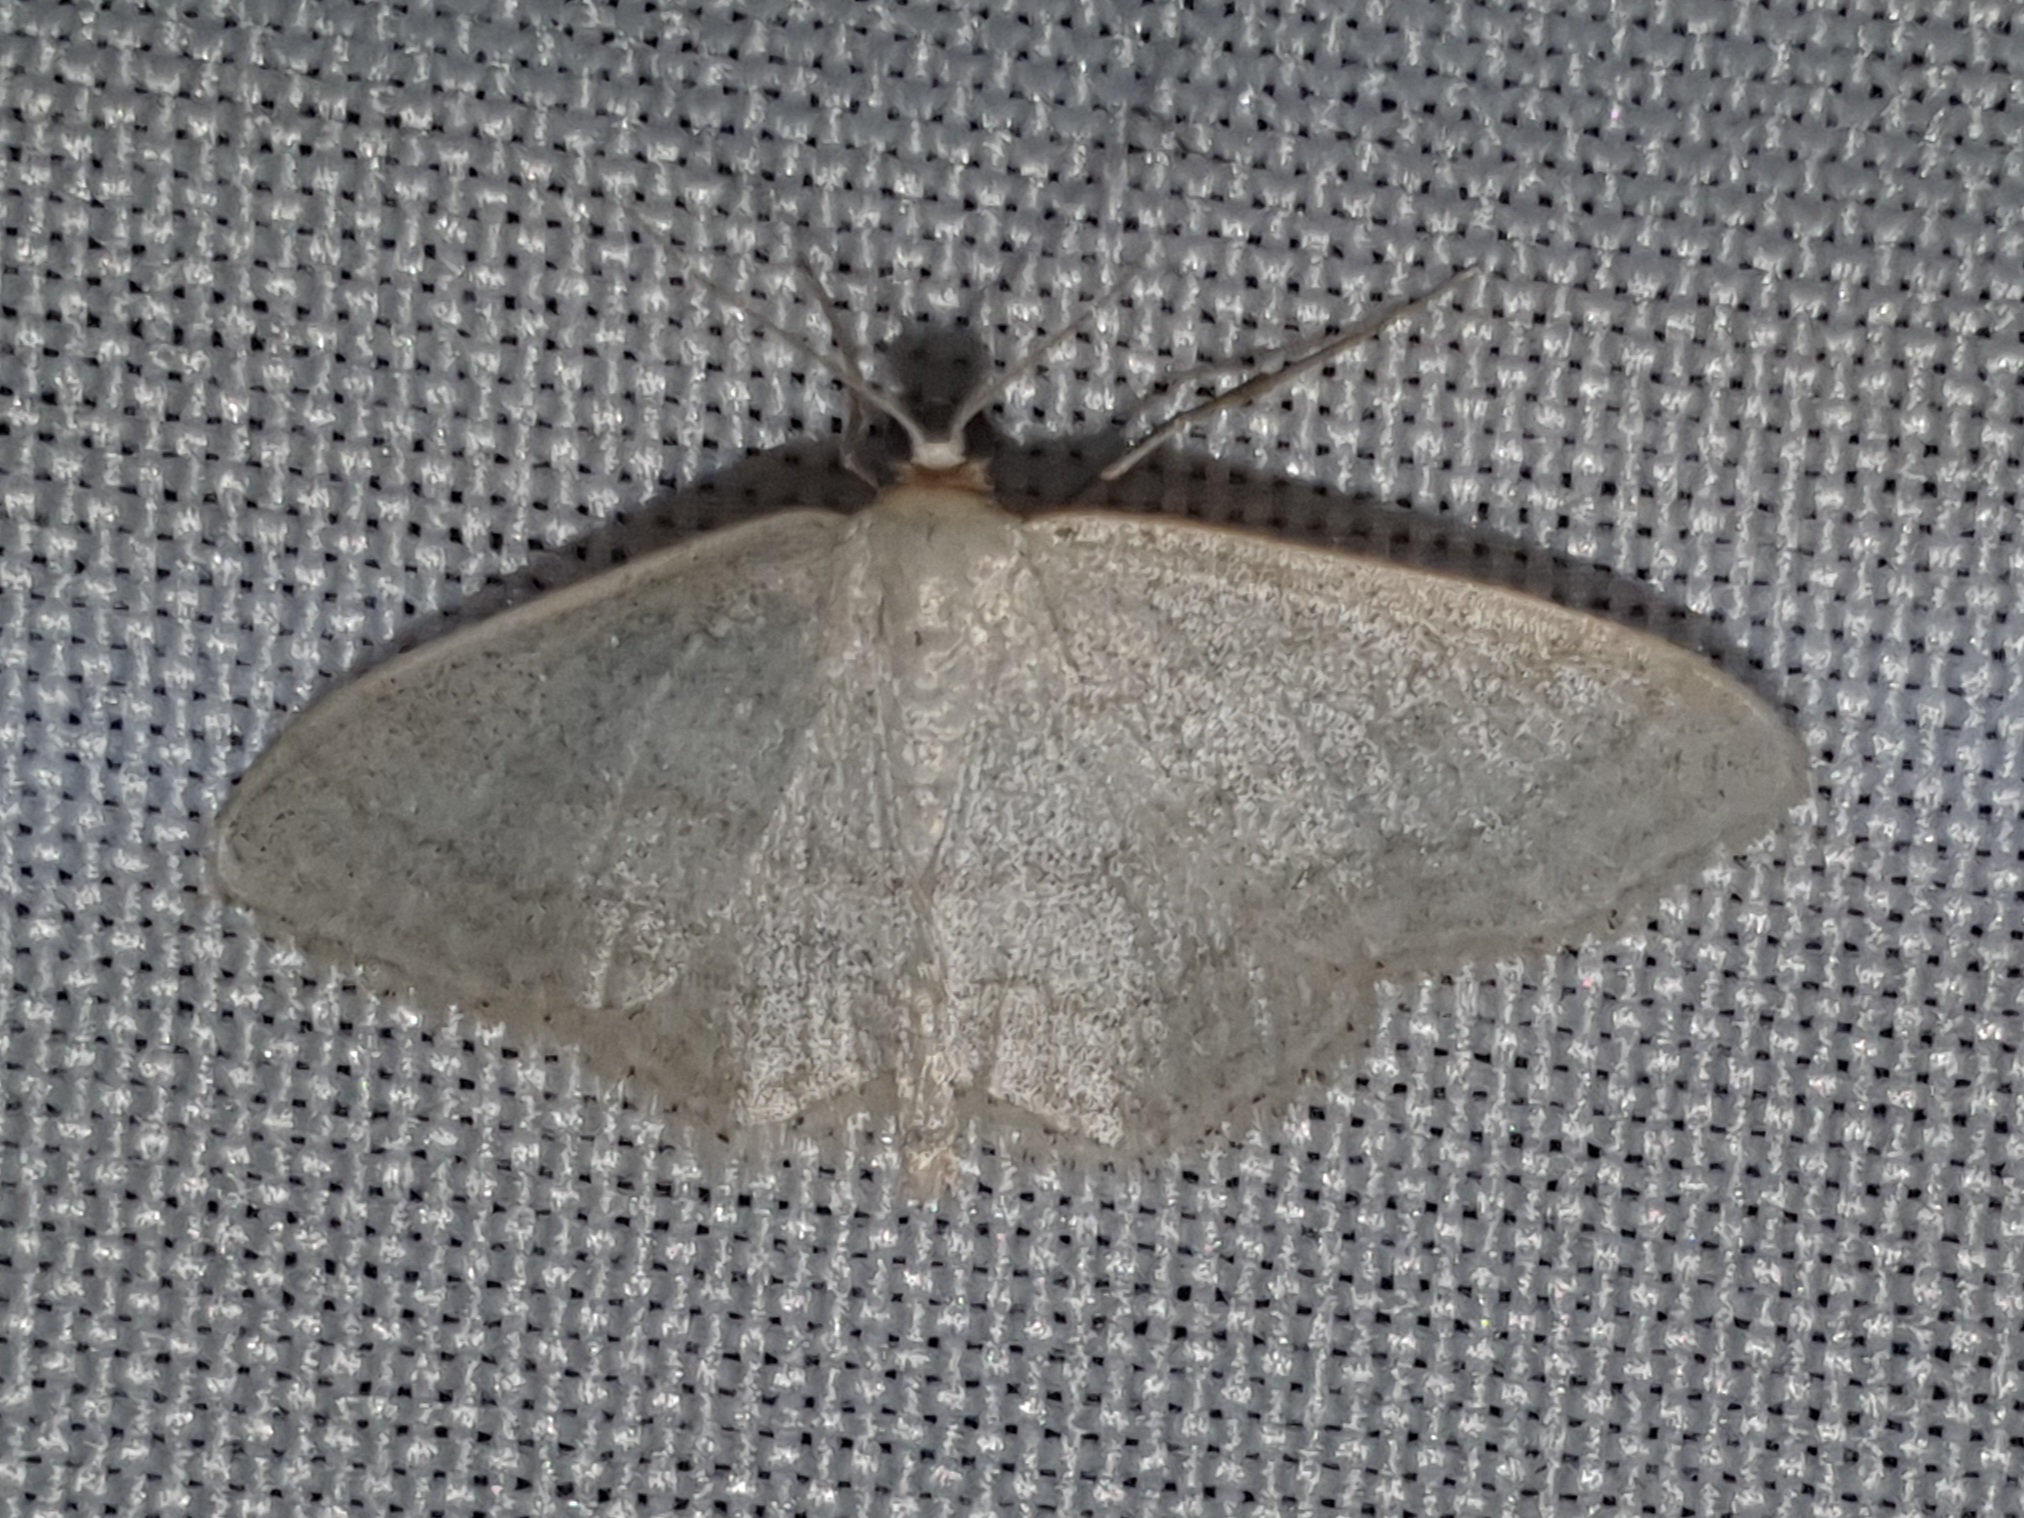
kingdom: Animalia
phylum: Arthropoda
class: Insecta
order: Lepidoptera
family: Geometridae
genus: Idaea
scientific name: Idaea subsericeata
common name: Satin wave
